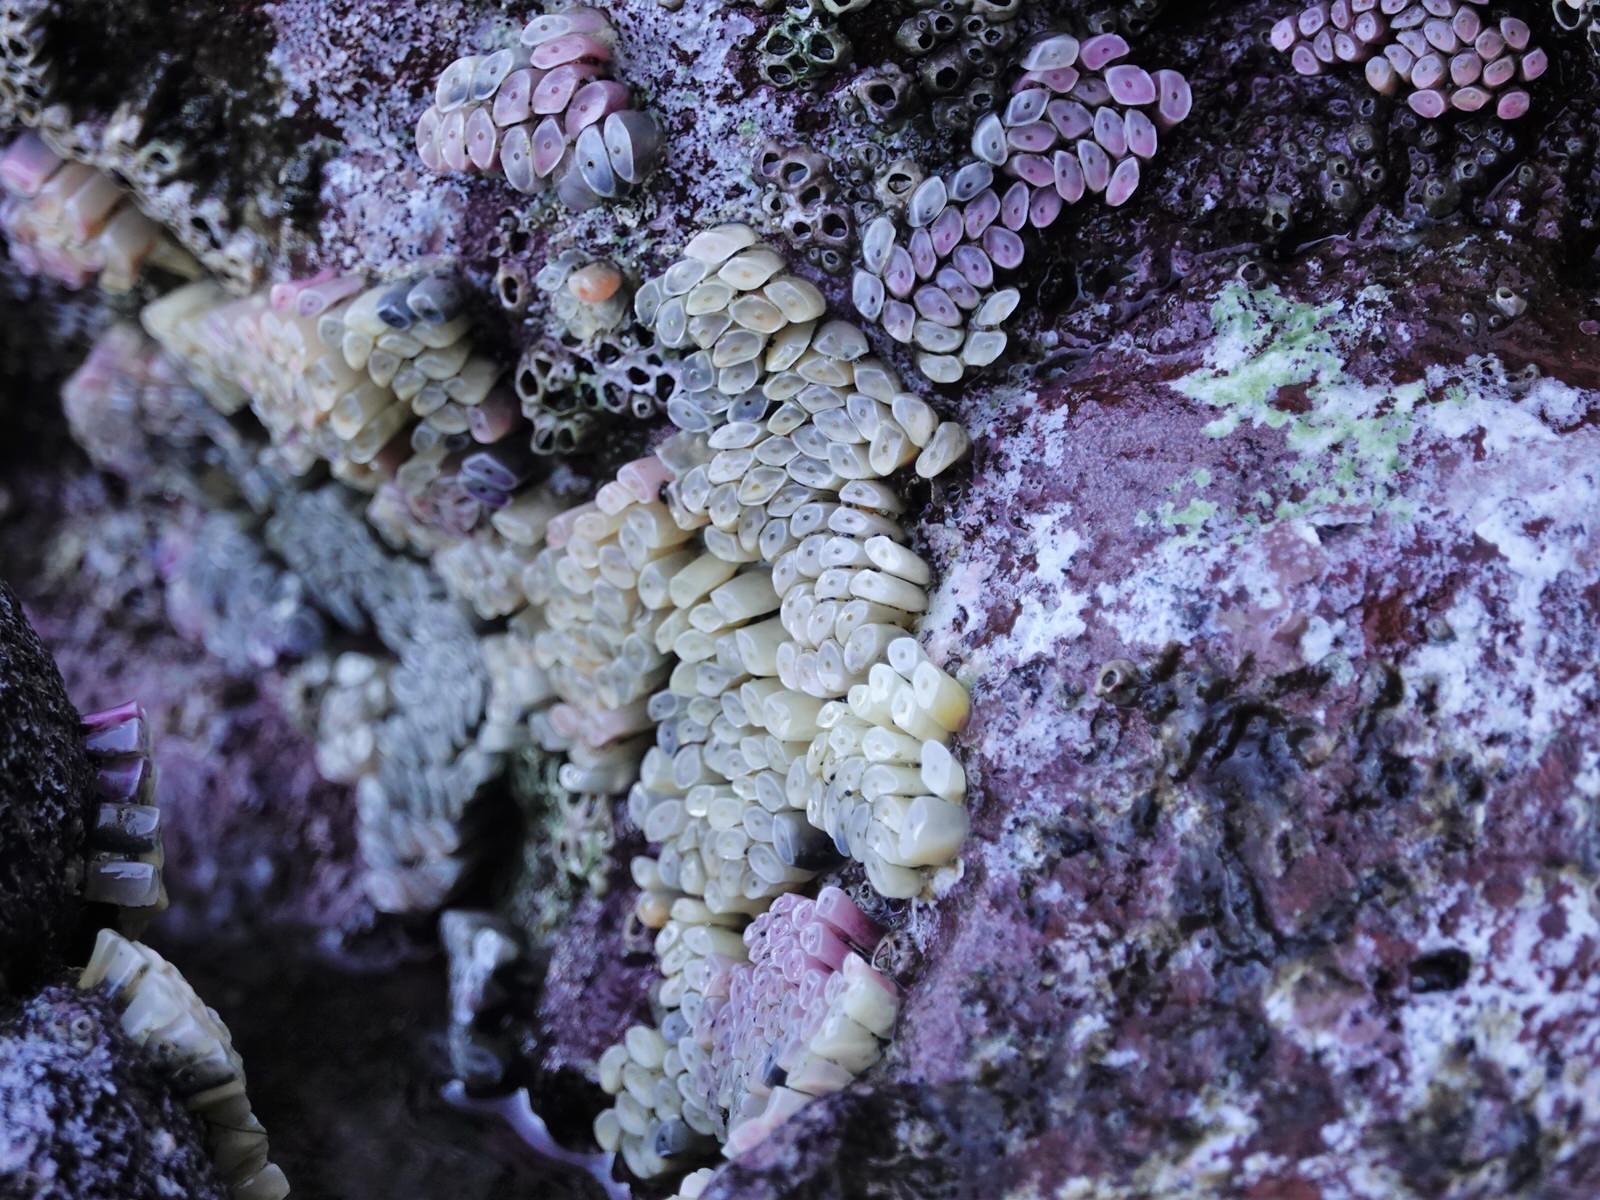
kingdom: Animalia
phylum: Mollusca
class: Gastropoda
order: Neogastropoda
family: Muricidae
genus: Dicathais
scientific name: Dicathais orbita
